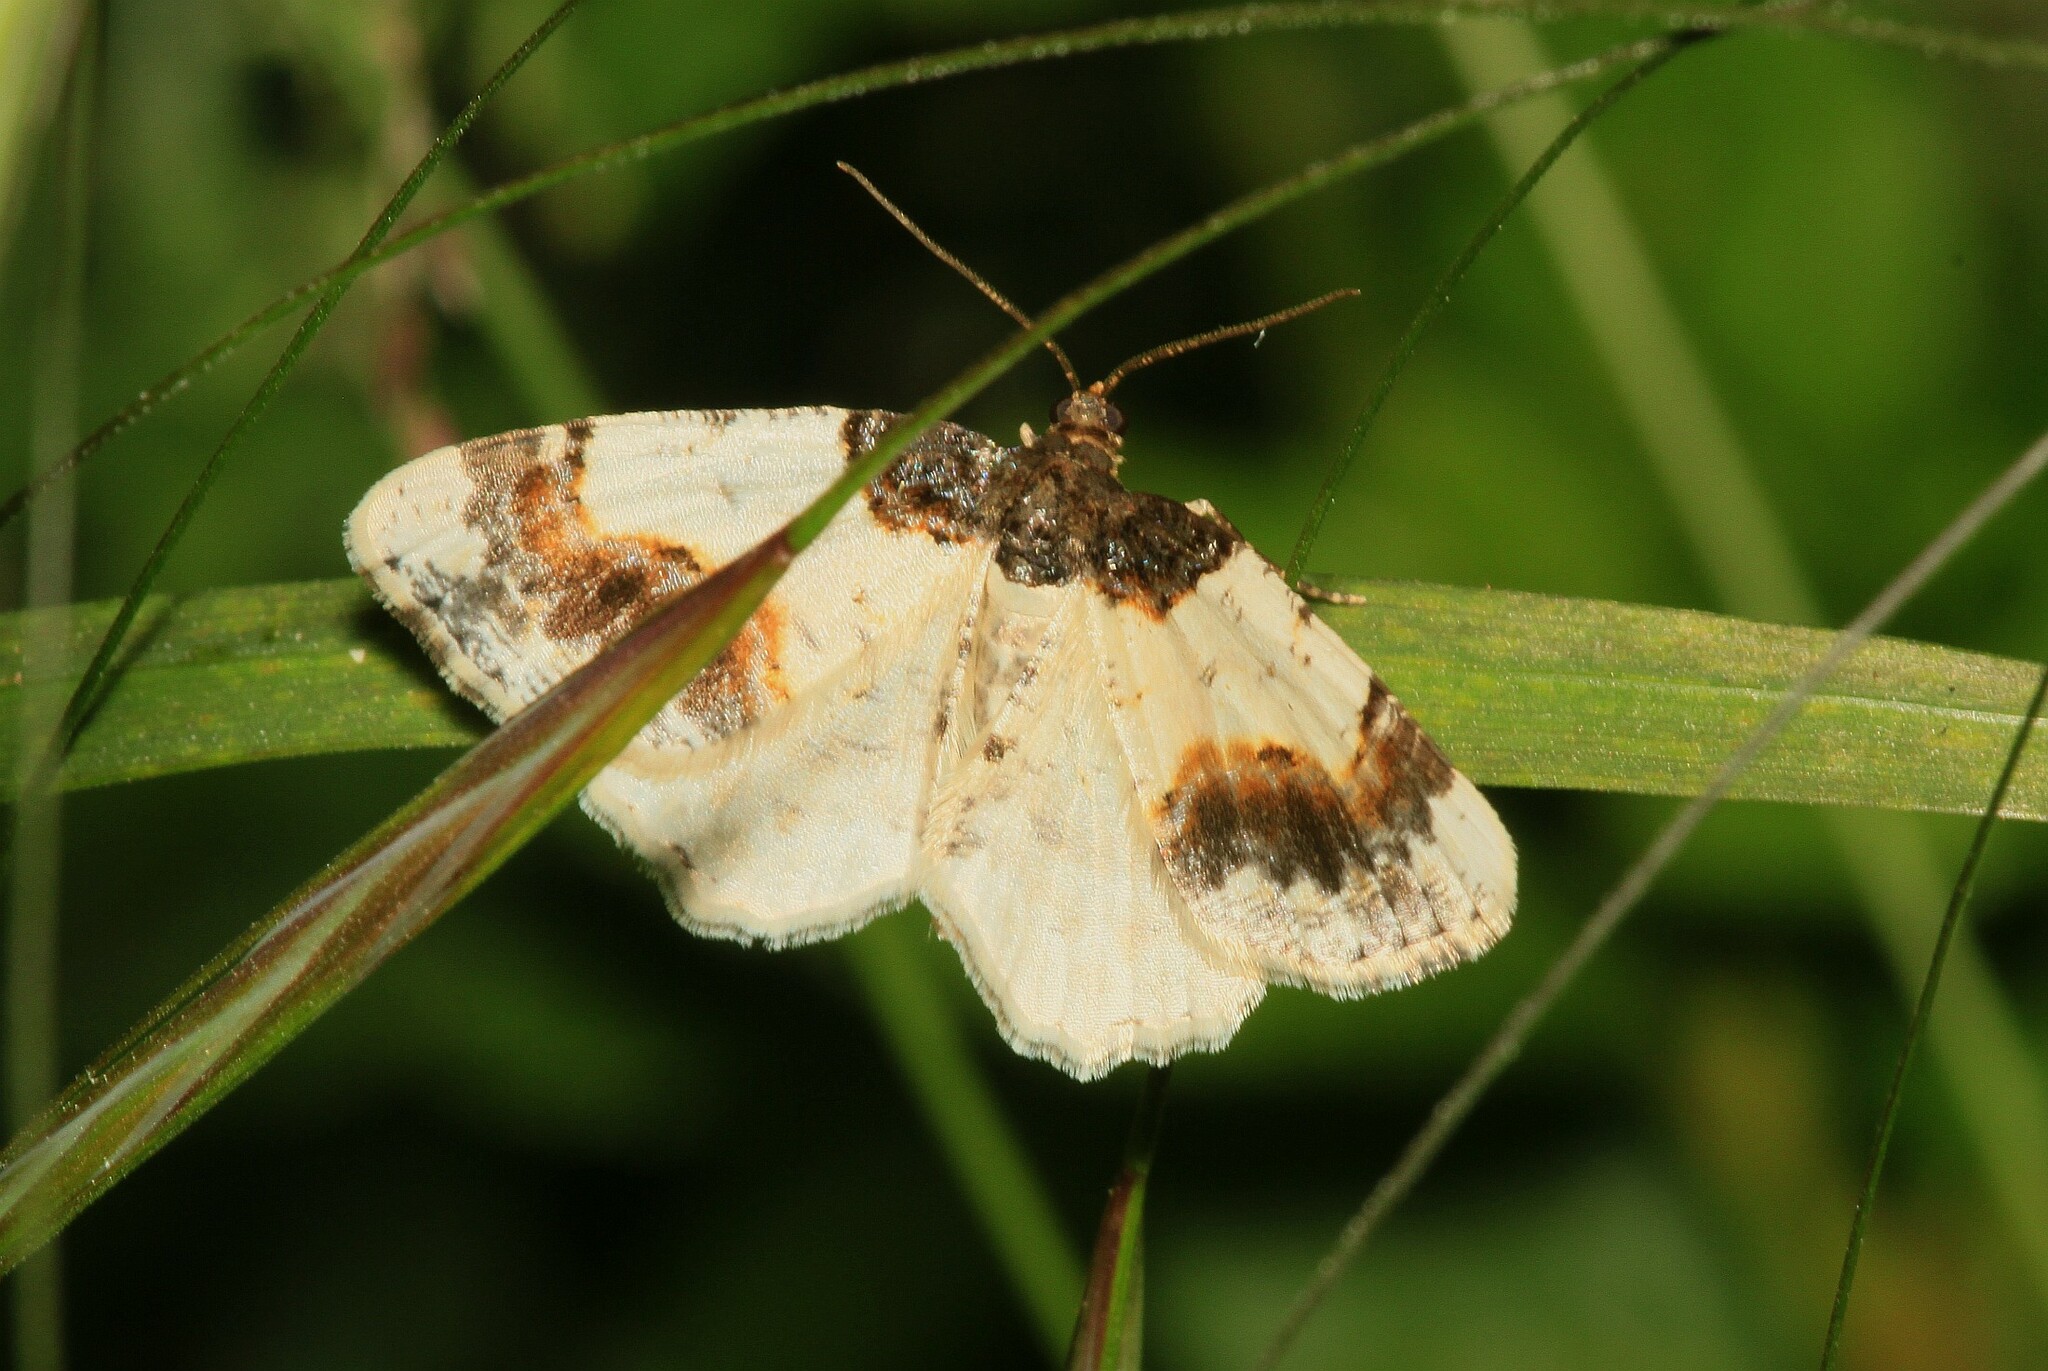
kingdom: Animalia
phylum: Arthropoda
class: Insecta
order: Lepidoptera
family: Geometridae
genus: Ligdia
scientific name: Ligdia adustata
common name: Scorched carpet
